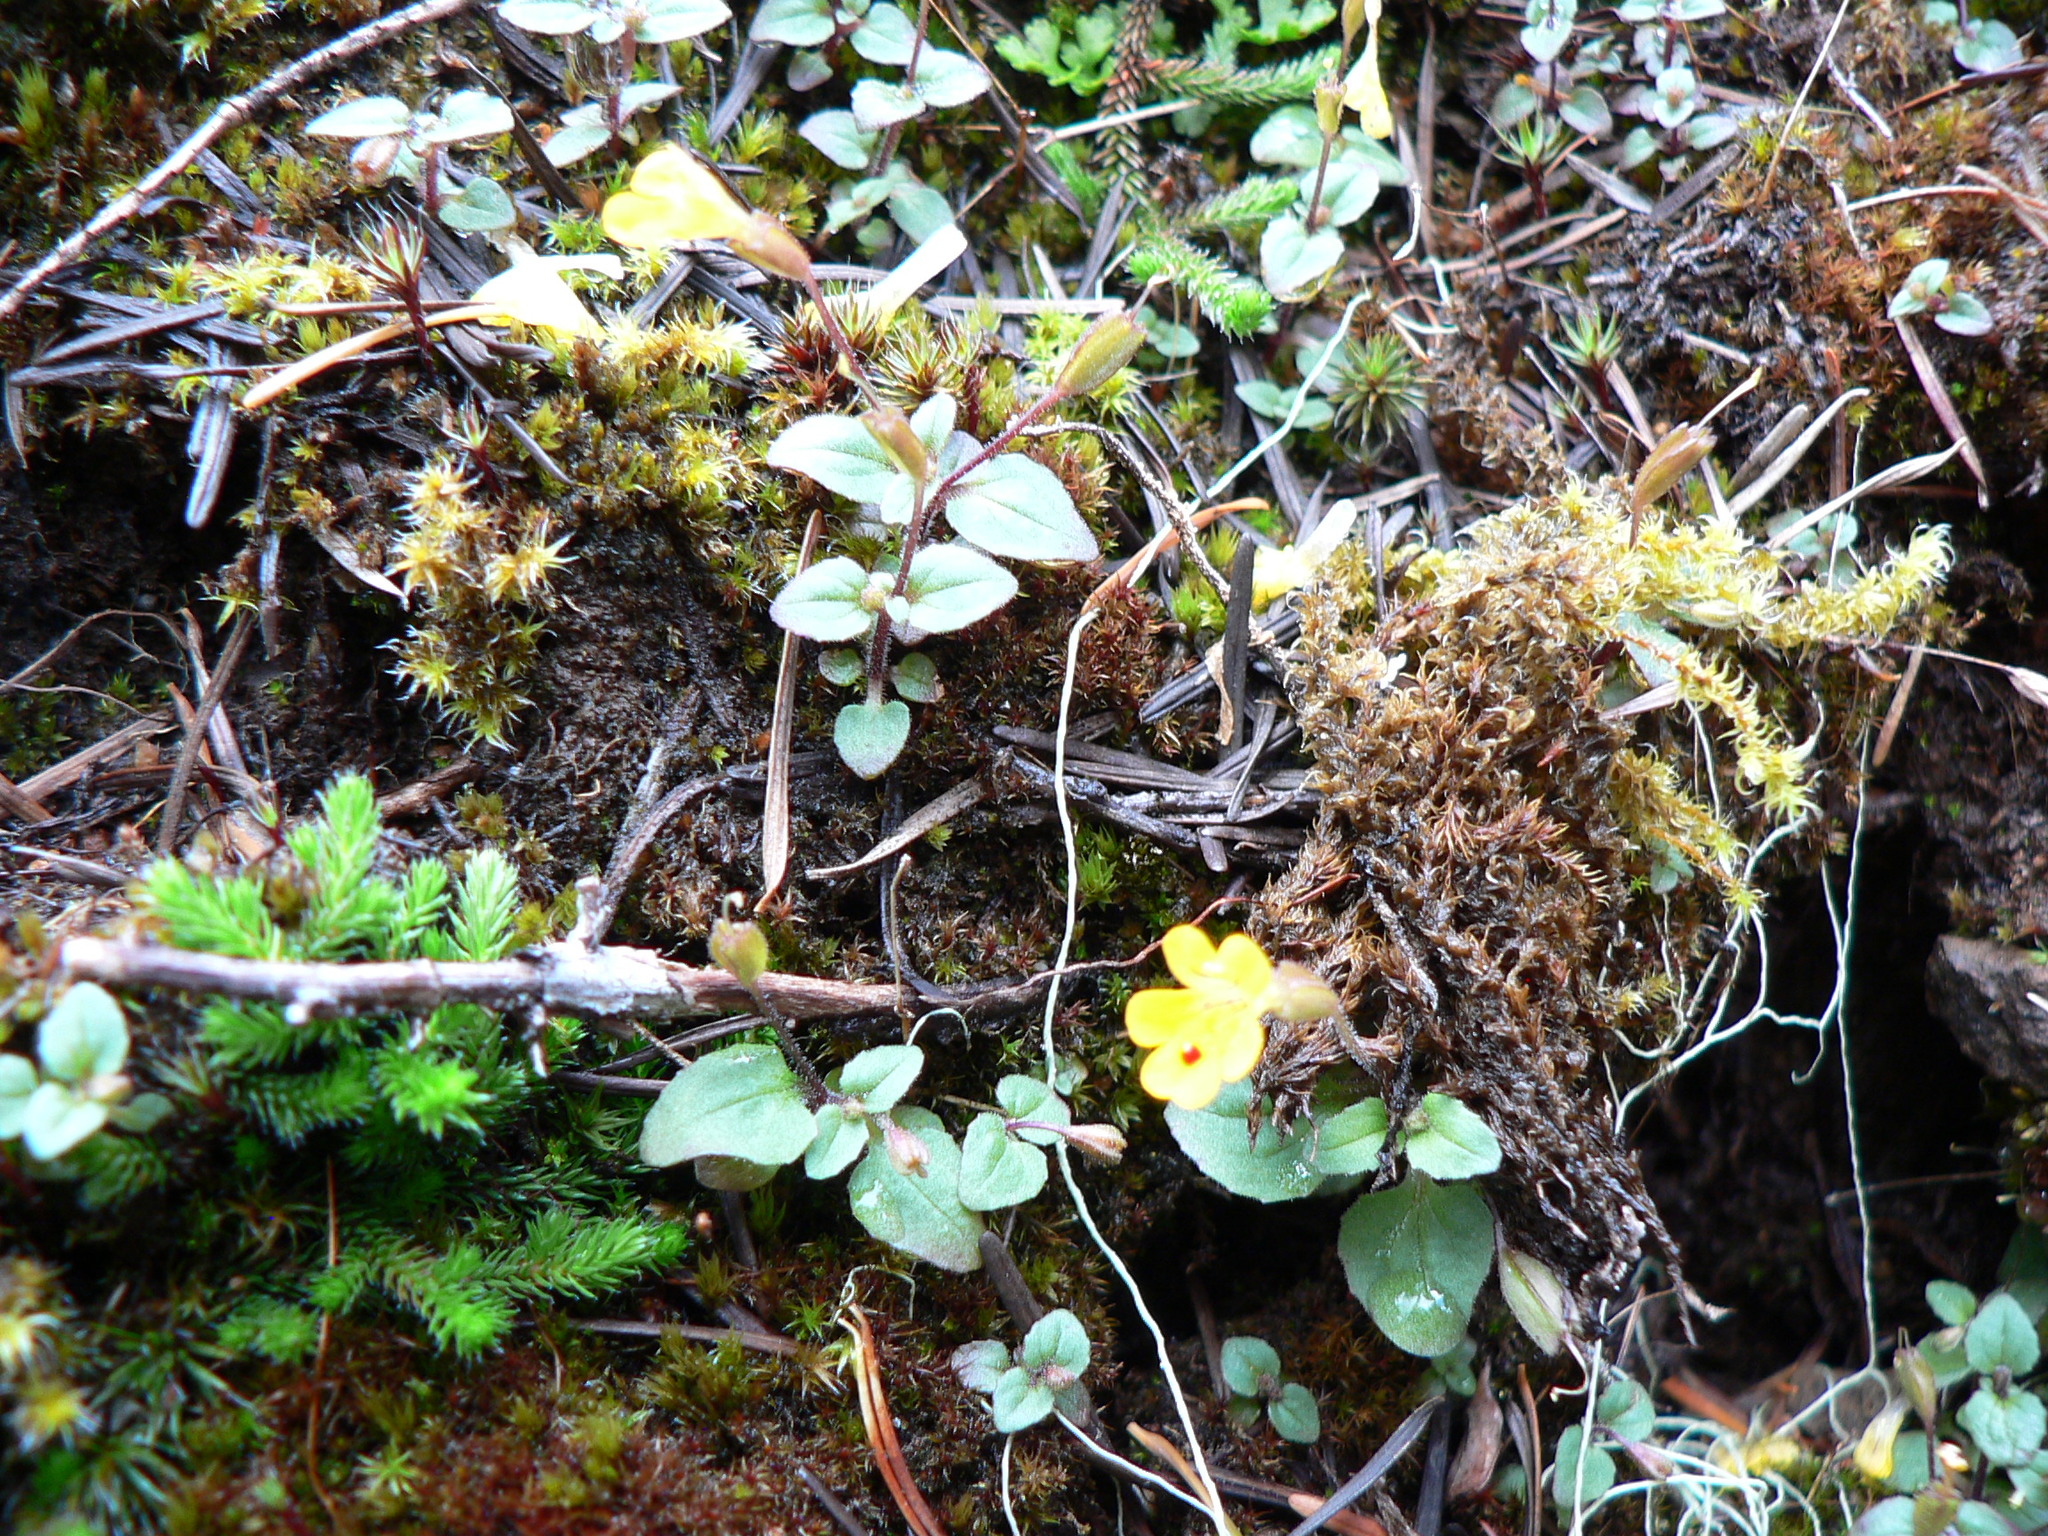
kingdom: Plantae
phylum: Tracheophyta
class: Magnoliopsida
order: Lamiales
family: Phrymaceae
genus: Erythranthe
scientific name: Erythranthe alsinoides
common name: Chickweed monkeyflower
